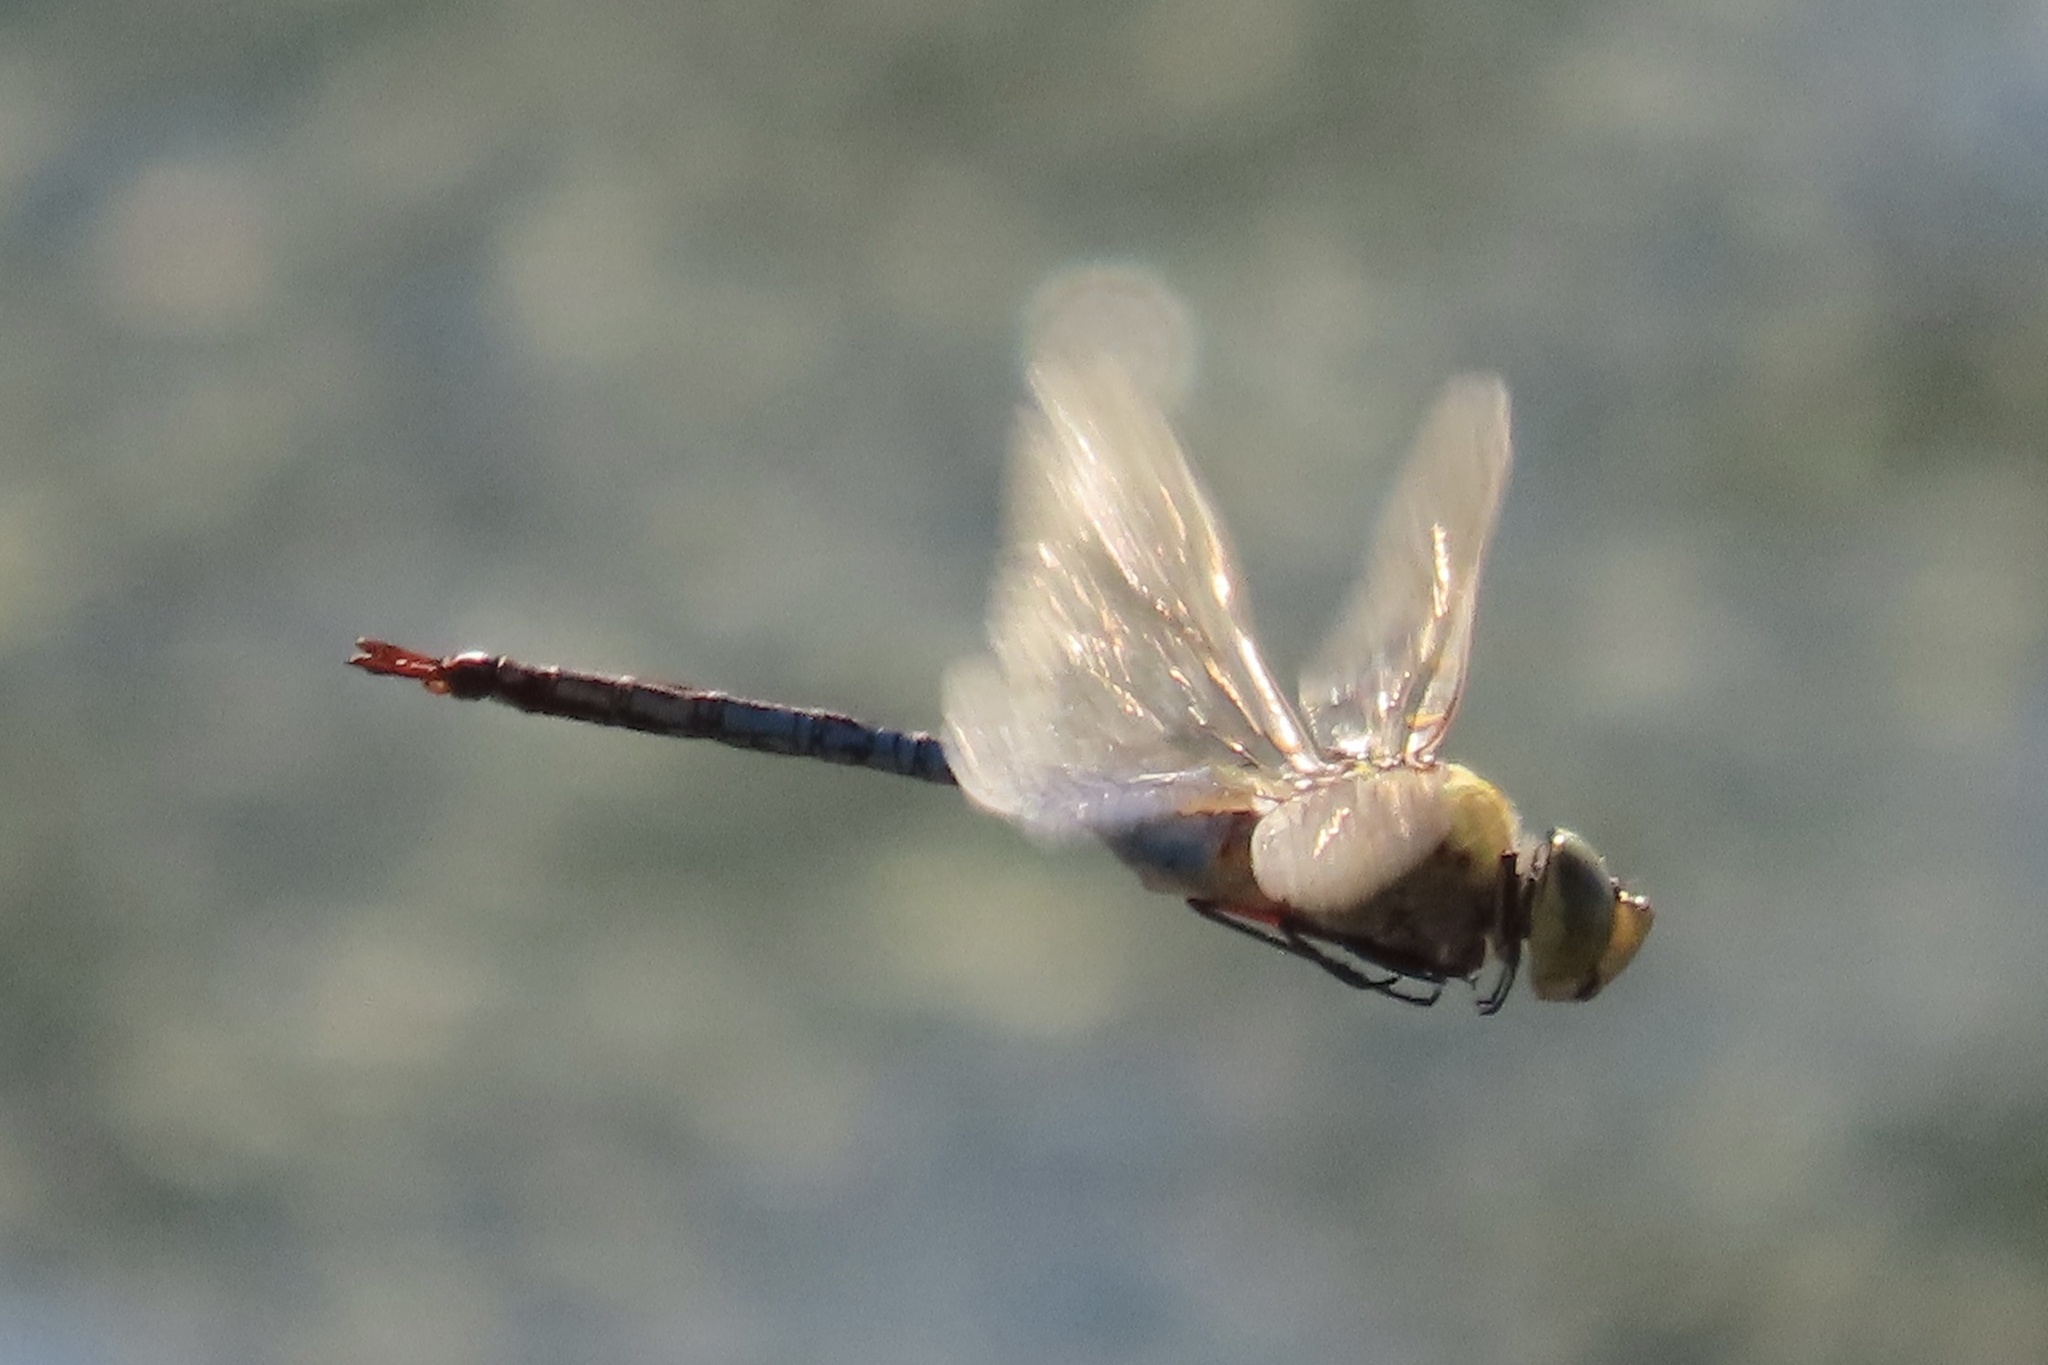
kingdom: Animalia
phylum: Arthropoda
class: Insecta
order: Odonata
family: Aeshnidae
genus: Anax
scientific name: Anax junius
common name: Common green darner
